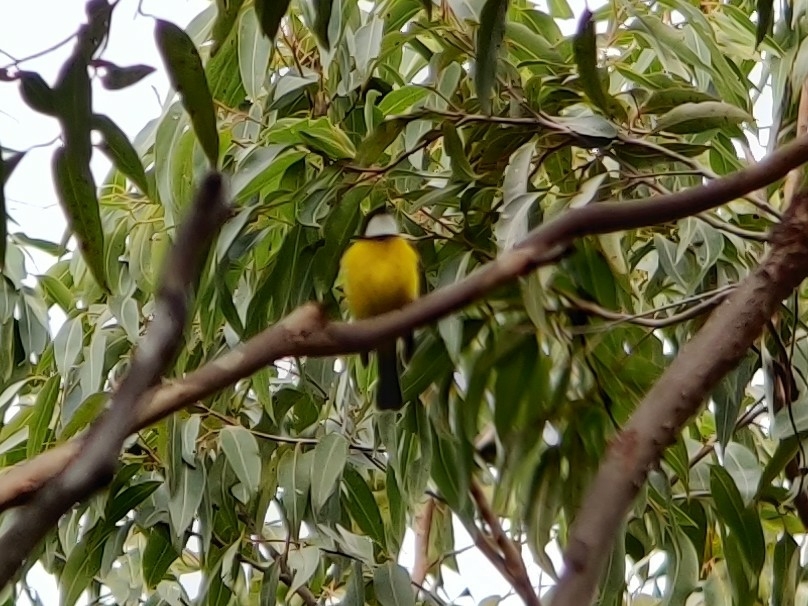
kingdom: Animalia
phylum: Chordata
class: Aves
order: Passeriformes
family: Pachycephalidae
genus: Pachycephala
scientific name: Pachycephala pectoralis
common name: Australian golden whistler
